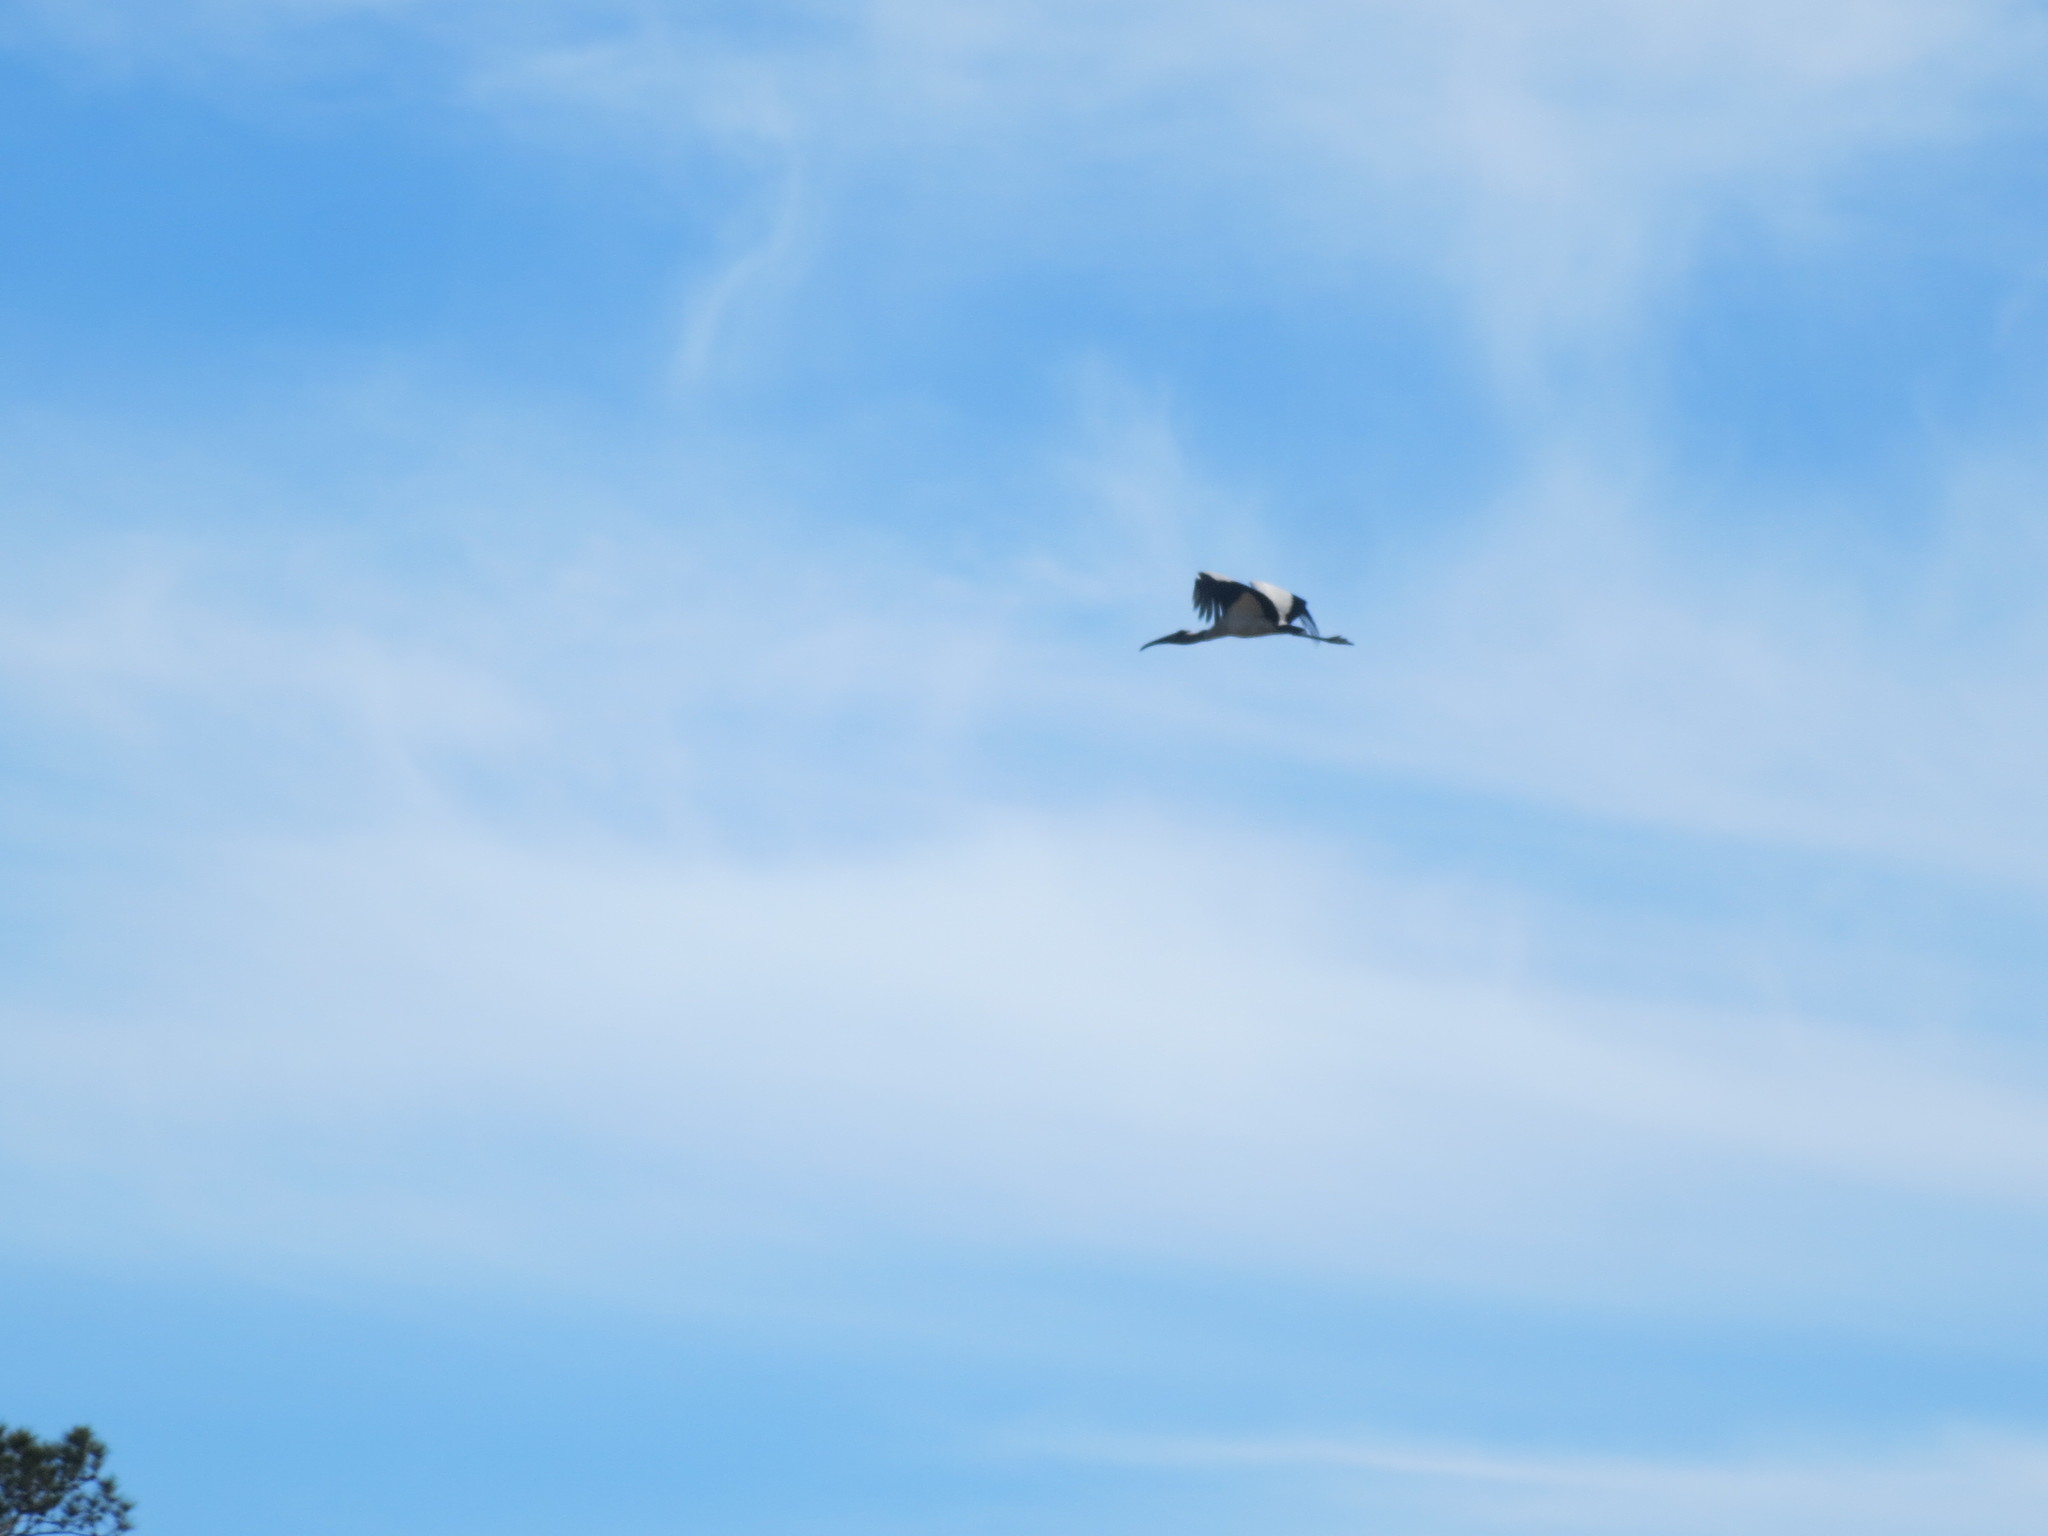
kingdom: Animalia
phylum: Chordata
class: Aves
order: Ciconiiformes
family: Ciconiidae
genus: Mycteria
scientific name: Mycteria americana
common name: Wood stork
